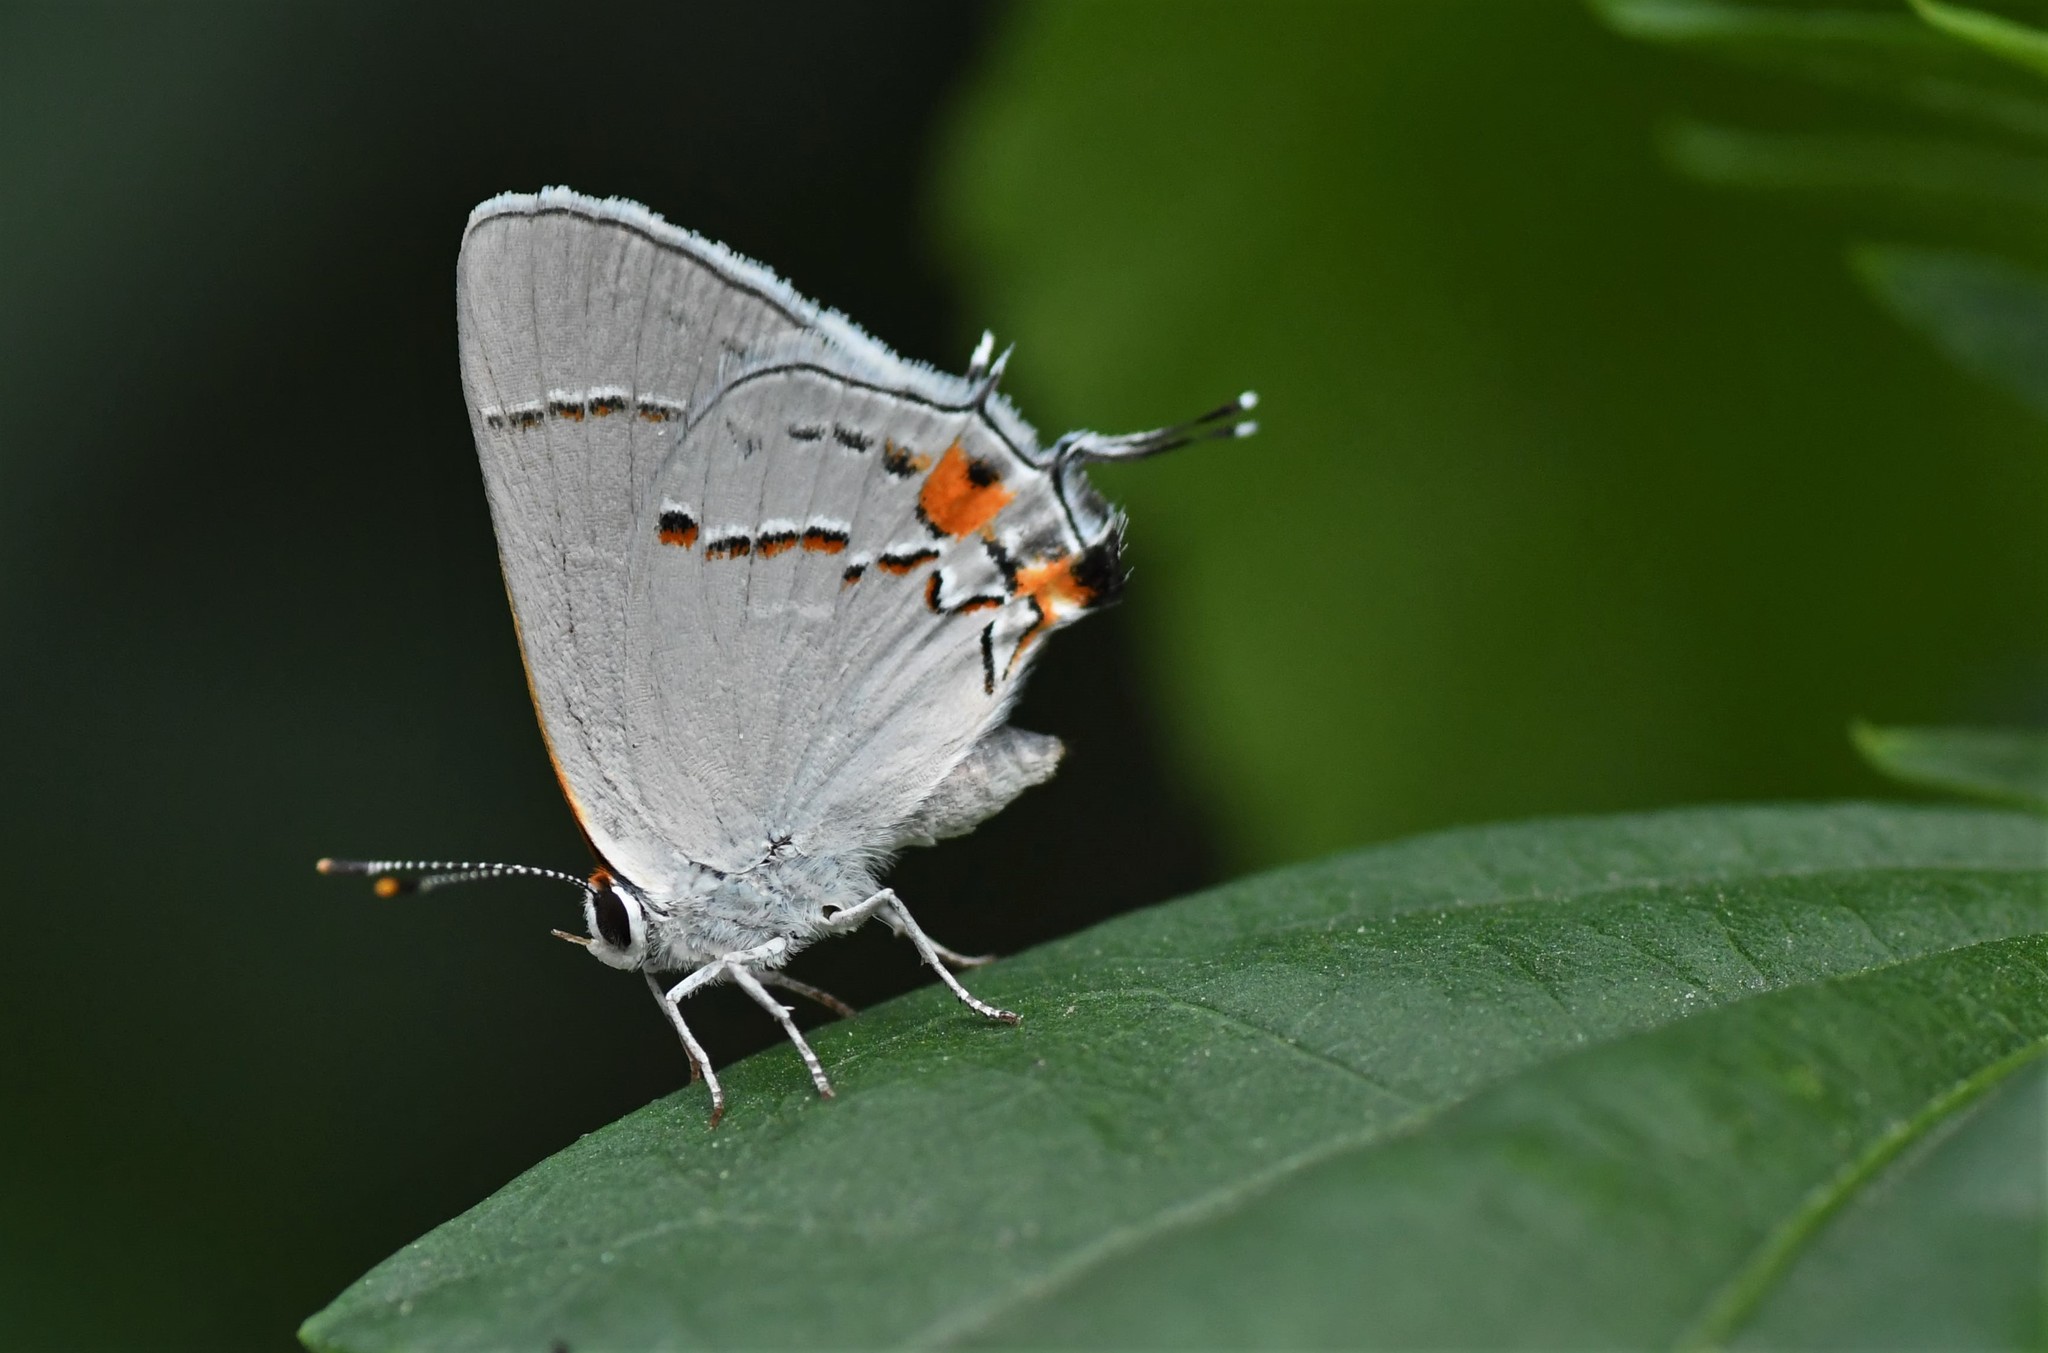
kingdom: Animalia
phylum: Arthropoda
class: Insecta
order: Lepidoptera
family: Lycaenidae
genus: Strymon
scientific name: Strymon melinus
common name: Gray hairstreak
